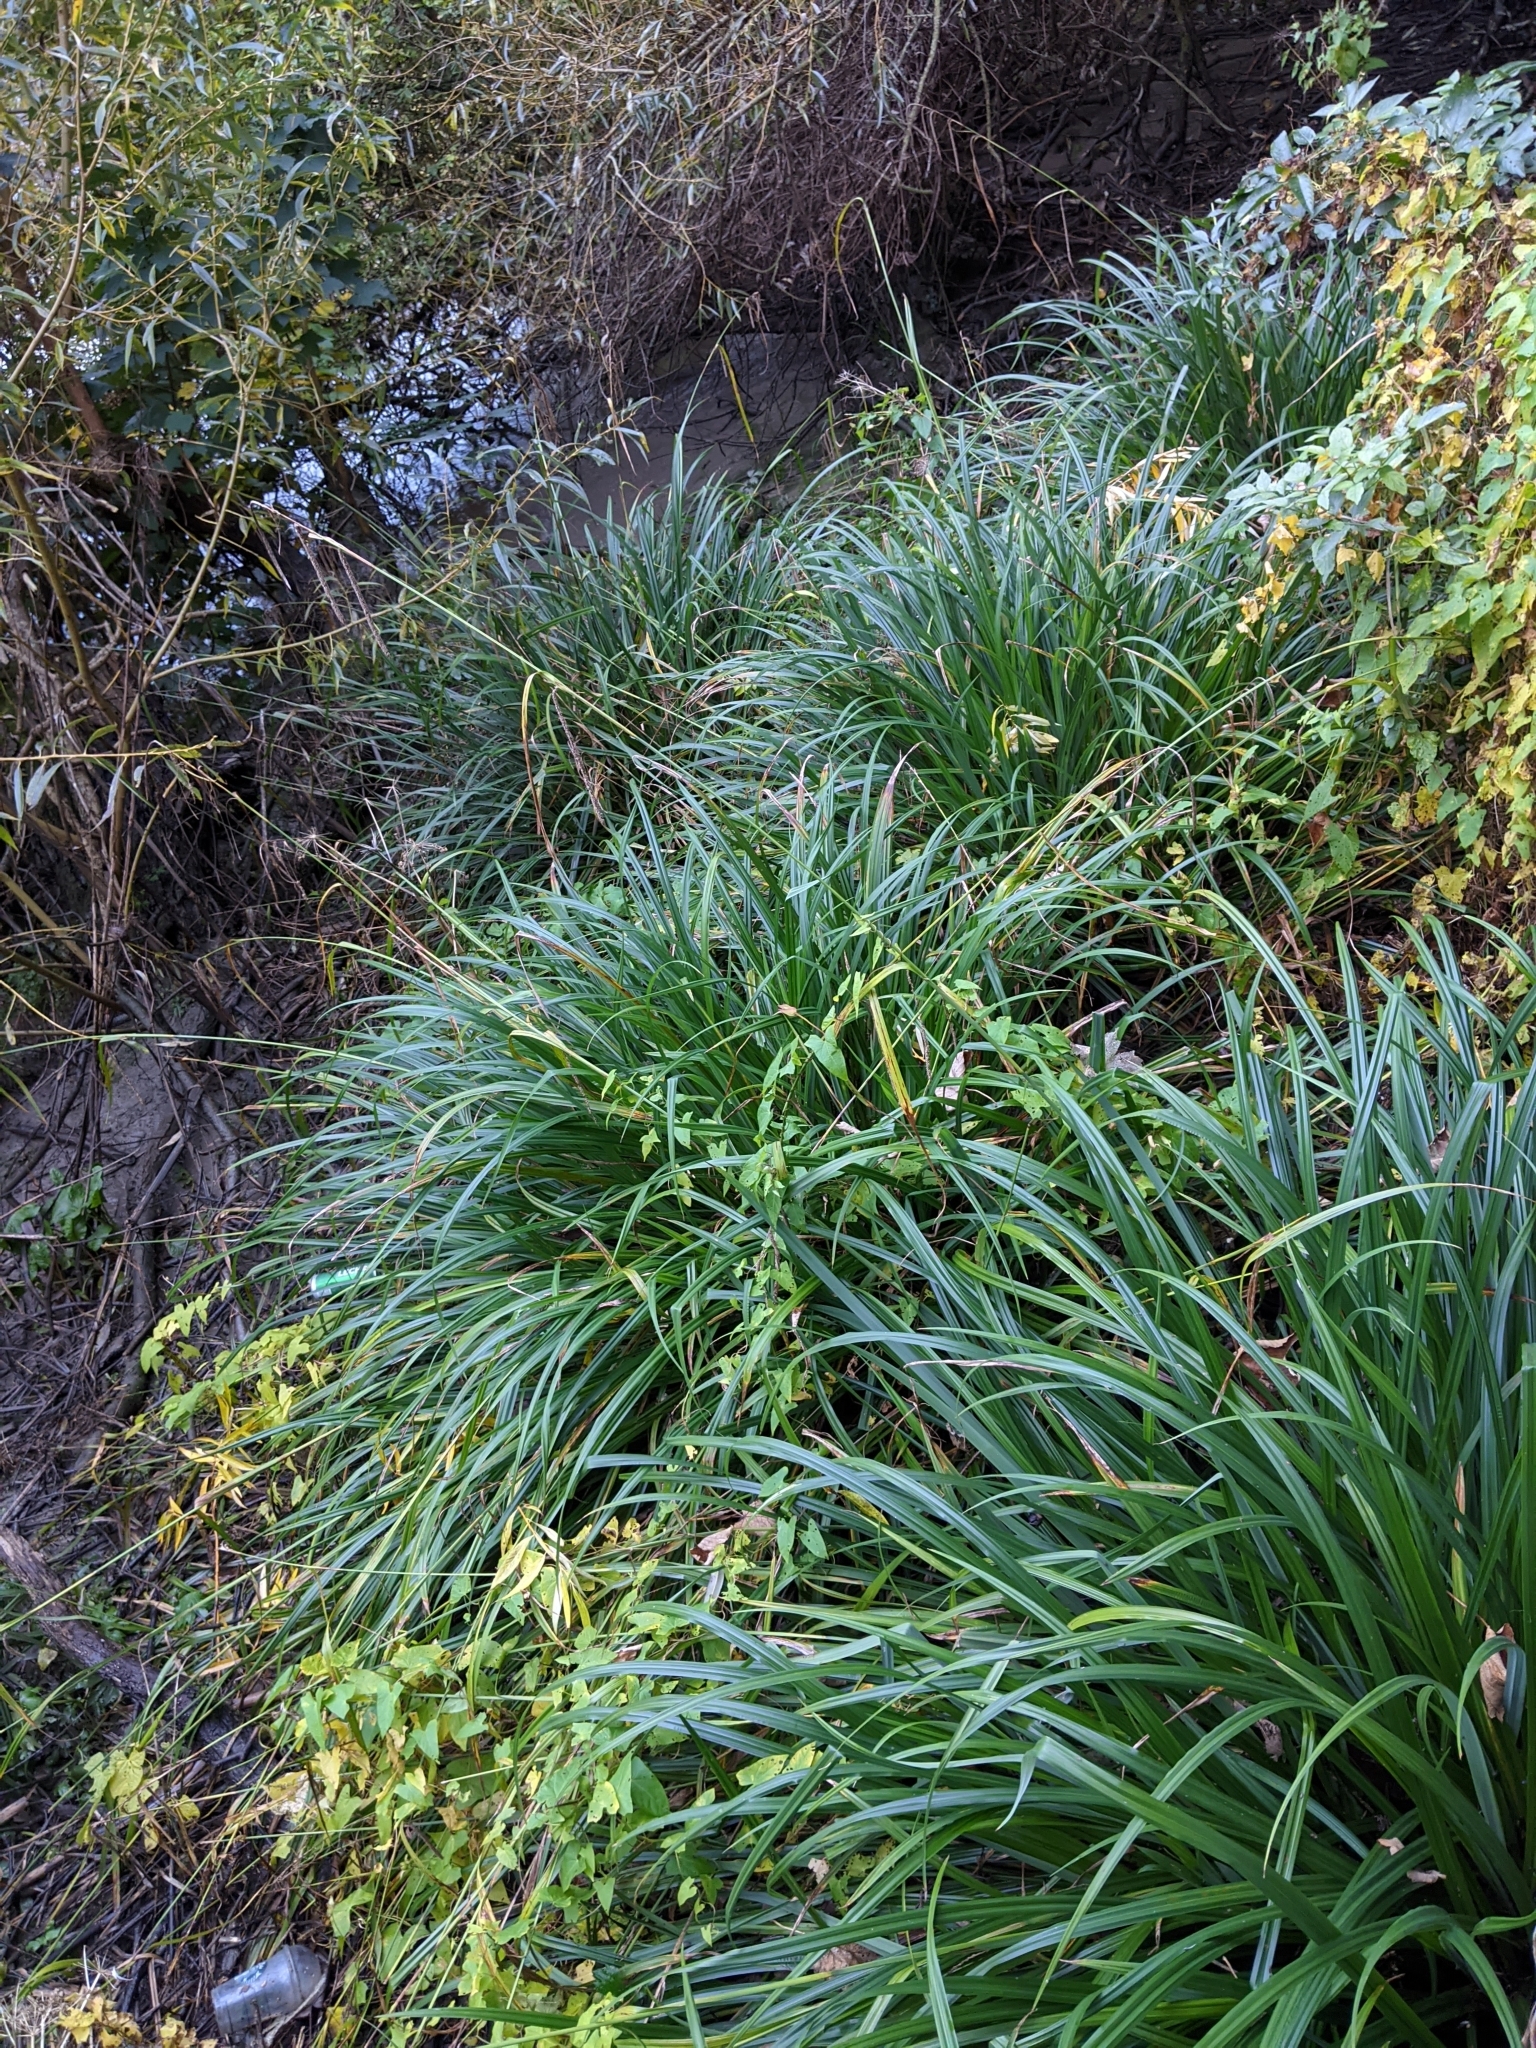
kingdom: Plantae
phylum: Tracheophyta
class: Liliopsida
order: Poales
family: Cyperaceae
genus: Carex
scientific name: Carex pendula
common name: Pendulous sedge
